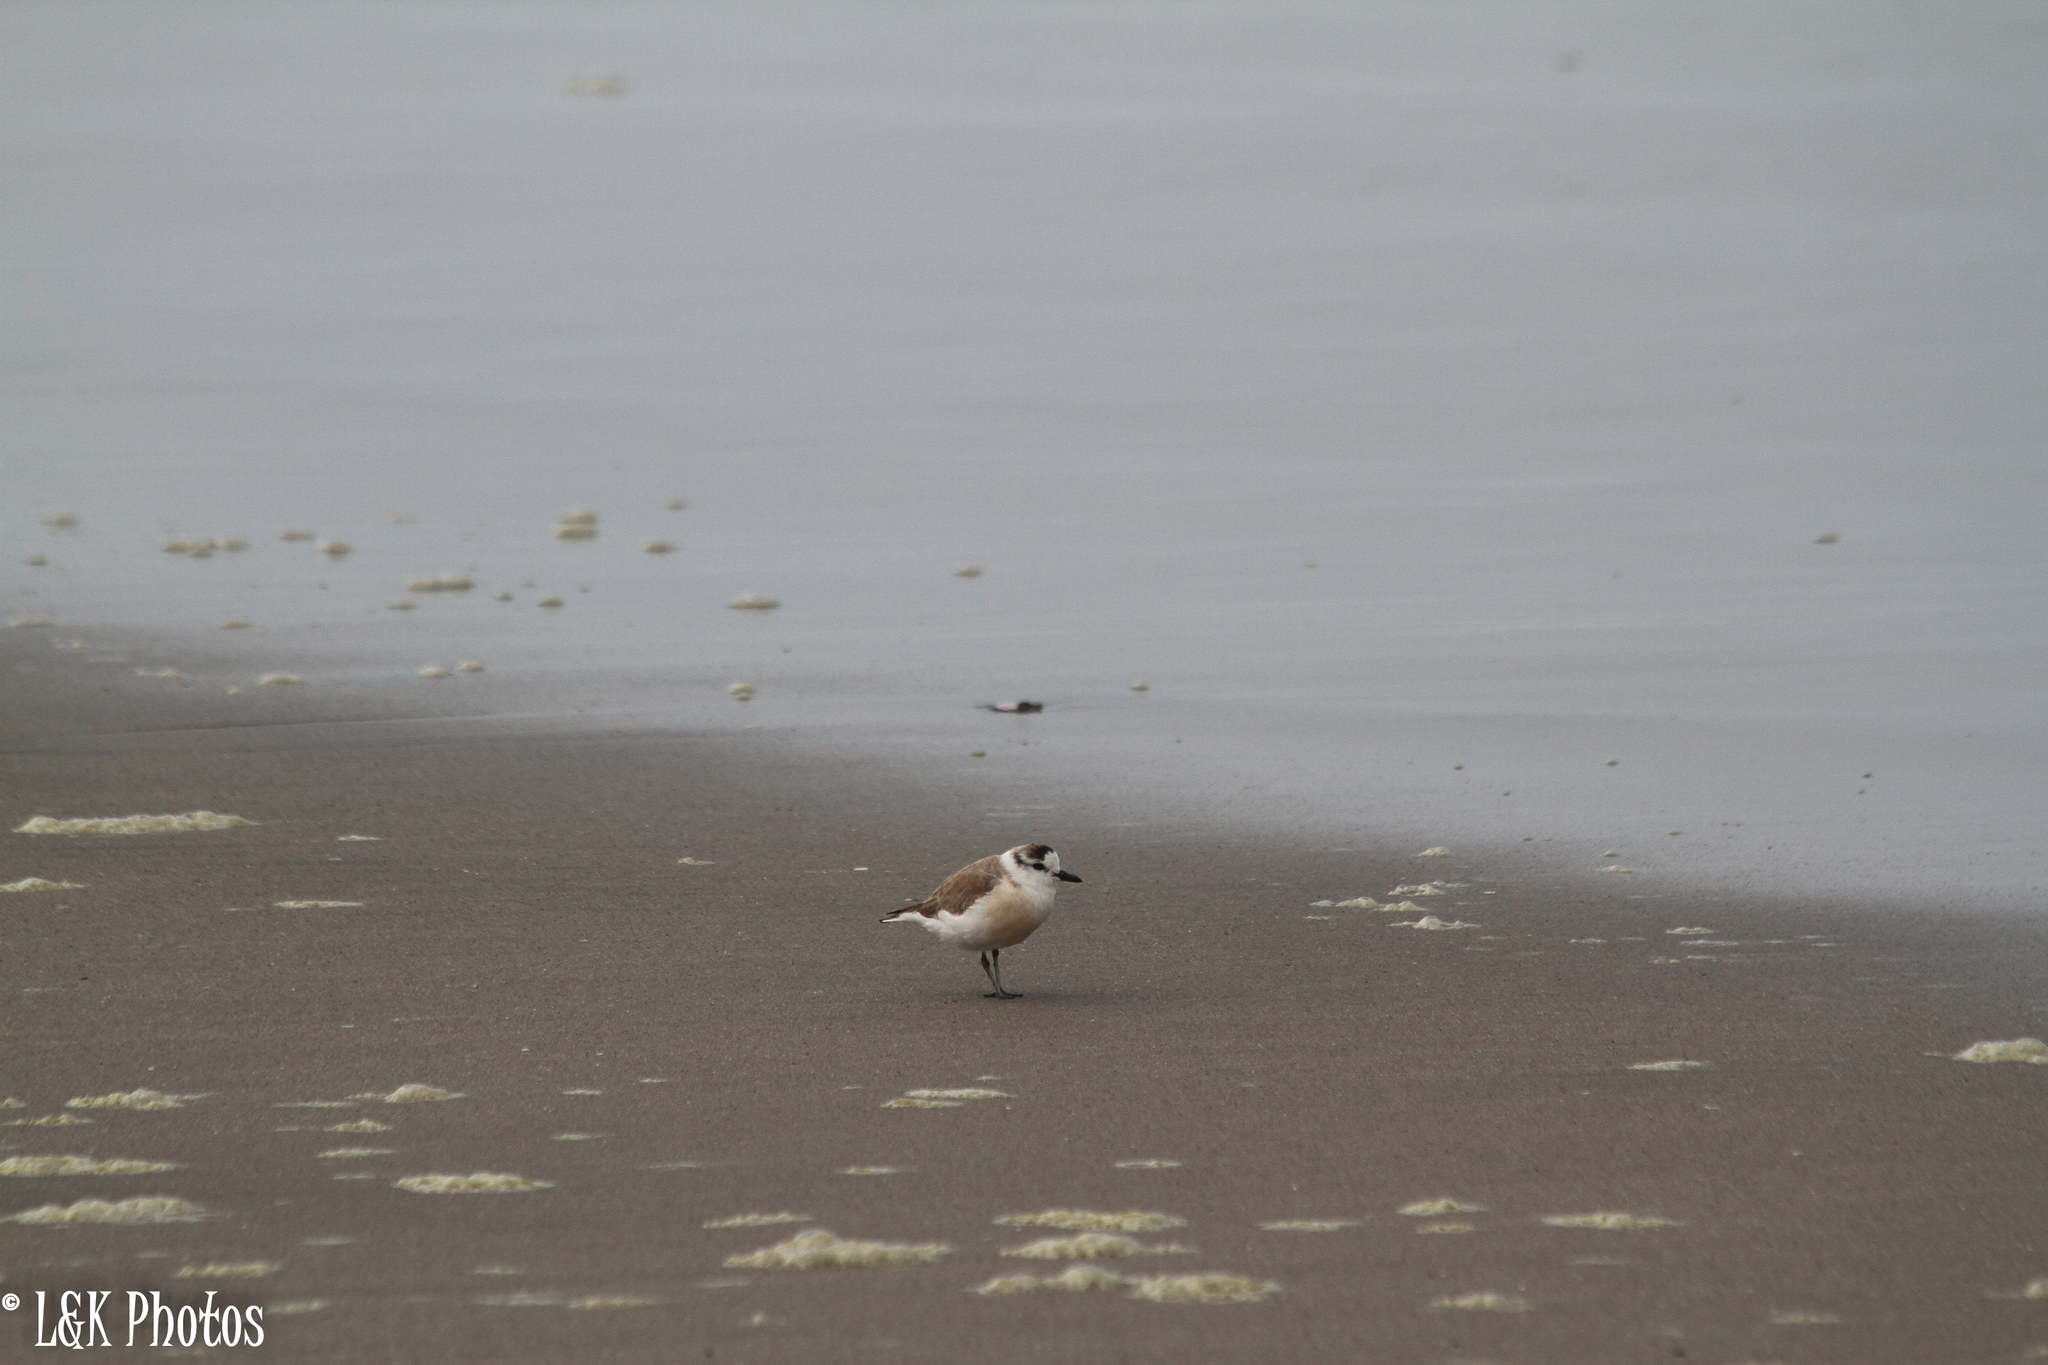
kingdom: Animalia
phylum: Chordata
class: Aves
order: Charadriiformes
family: Charadriidae
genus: Anarhynchus
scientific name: Anarhynchus
